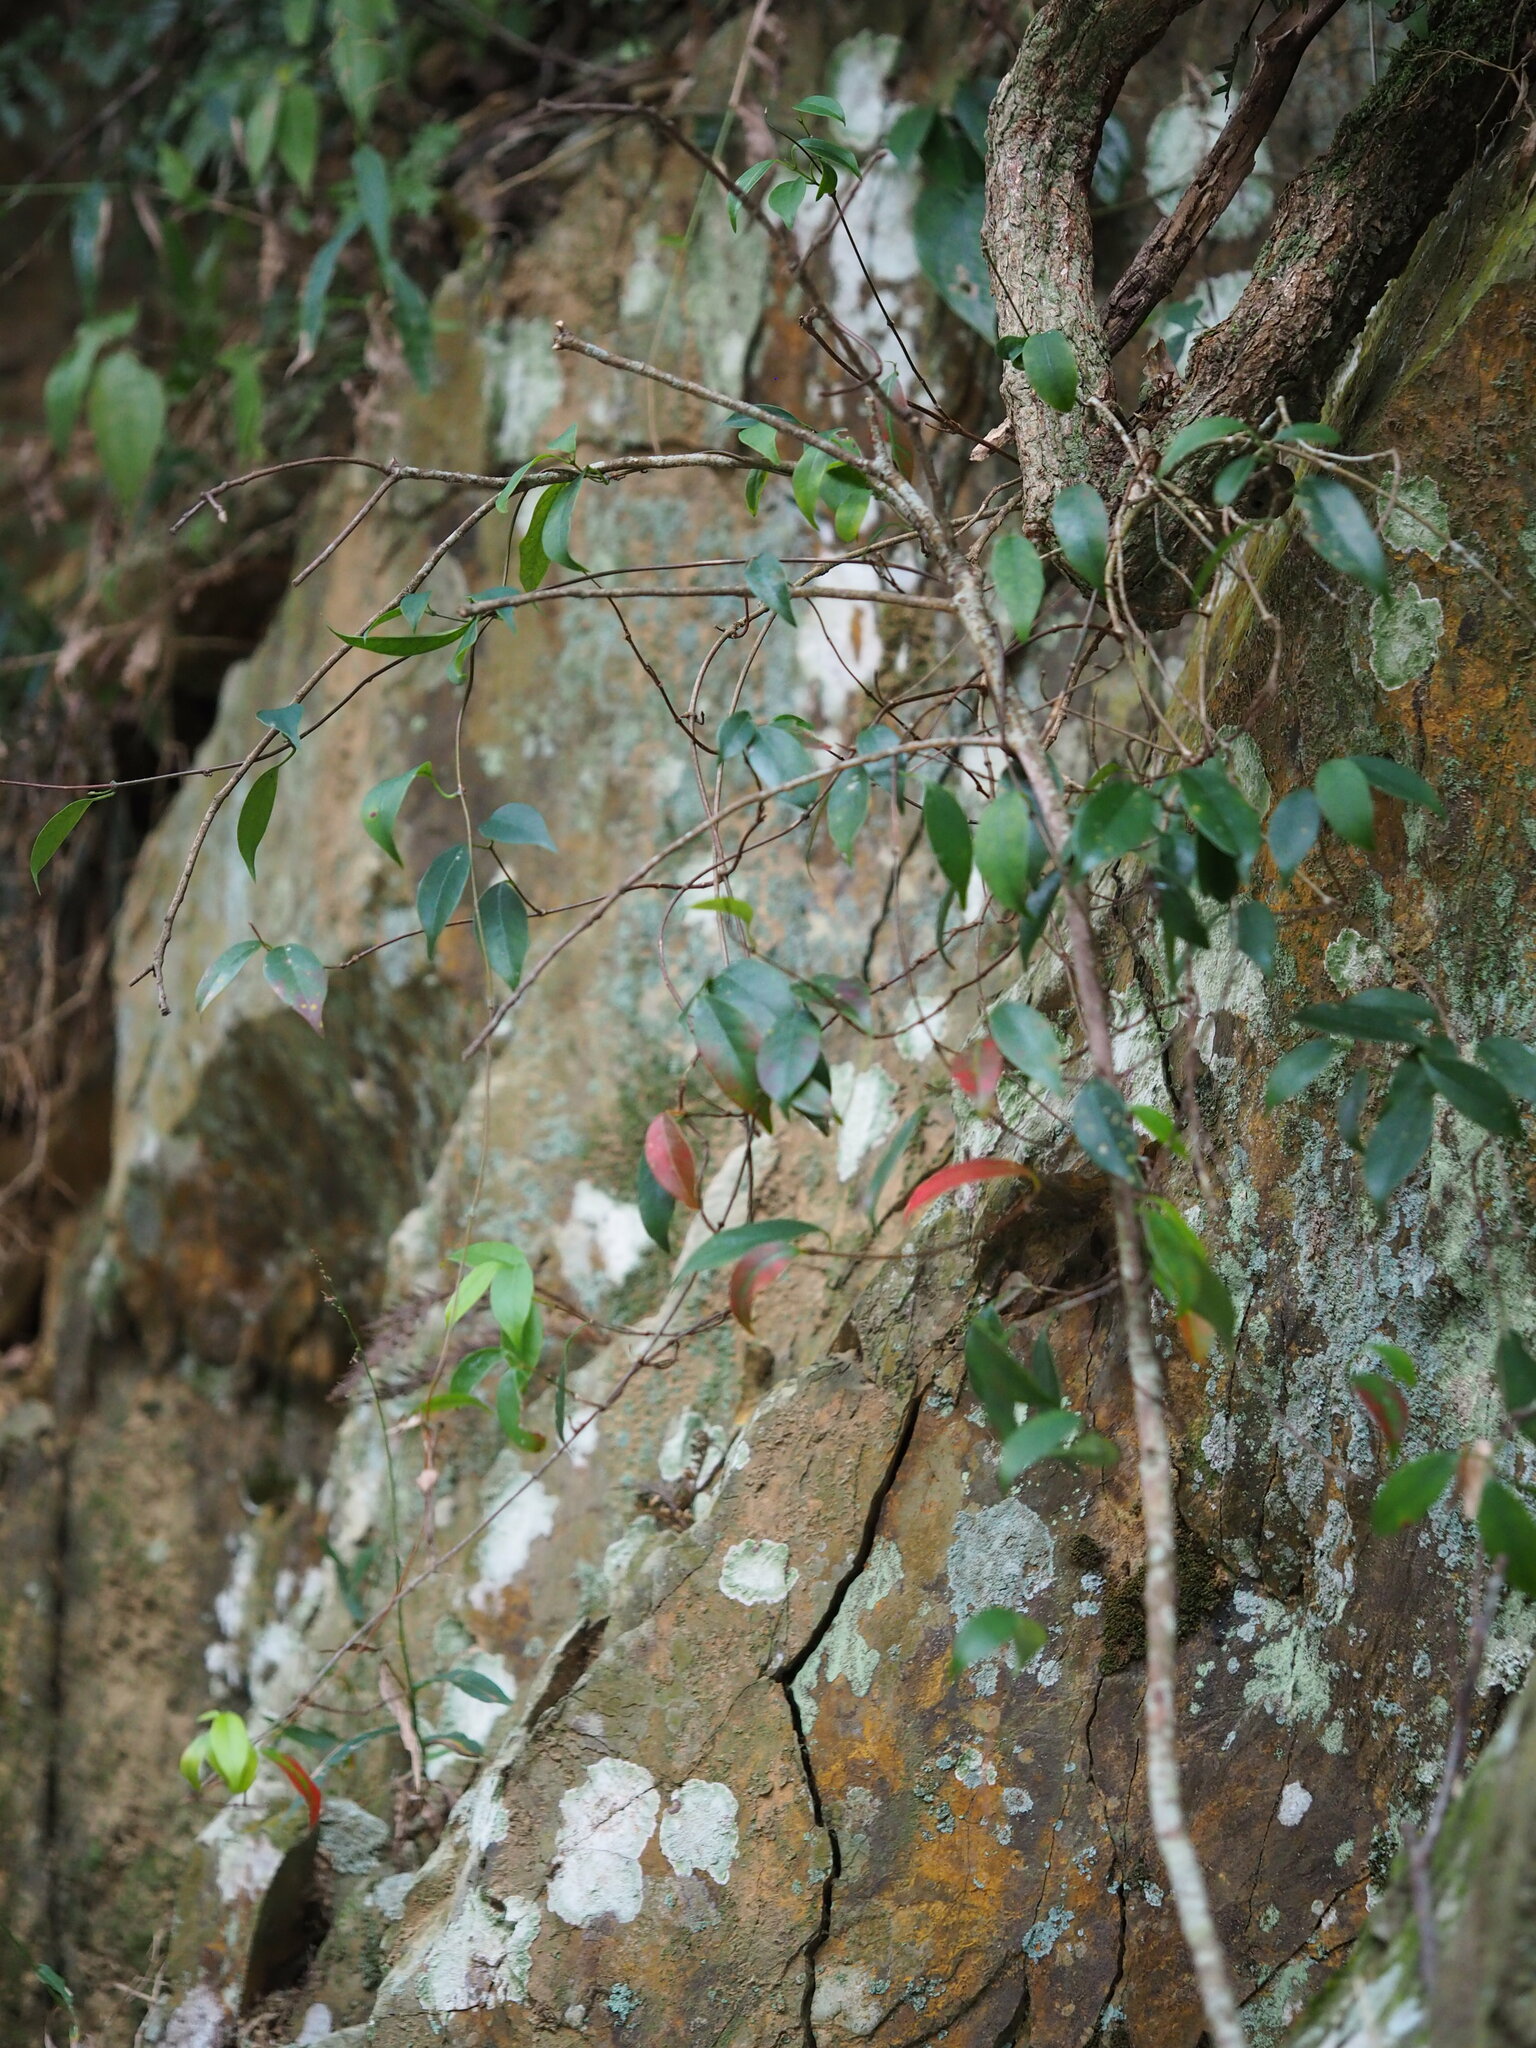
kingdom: Plantae
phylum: Tracheophyta
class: Magnoliopsida
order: Gentianales
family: Apocynaceae
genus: Urceola
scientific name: Urceola rosea
